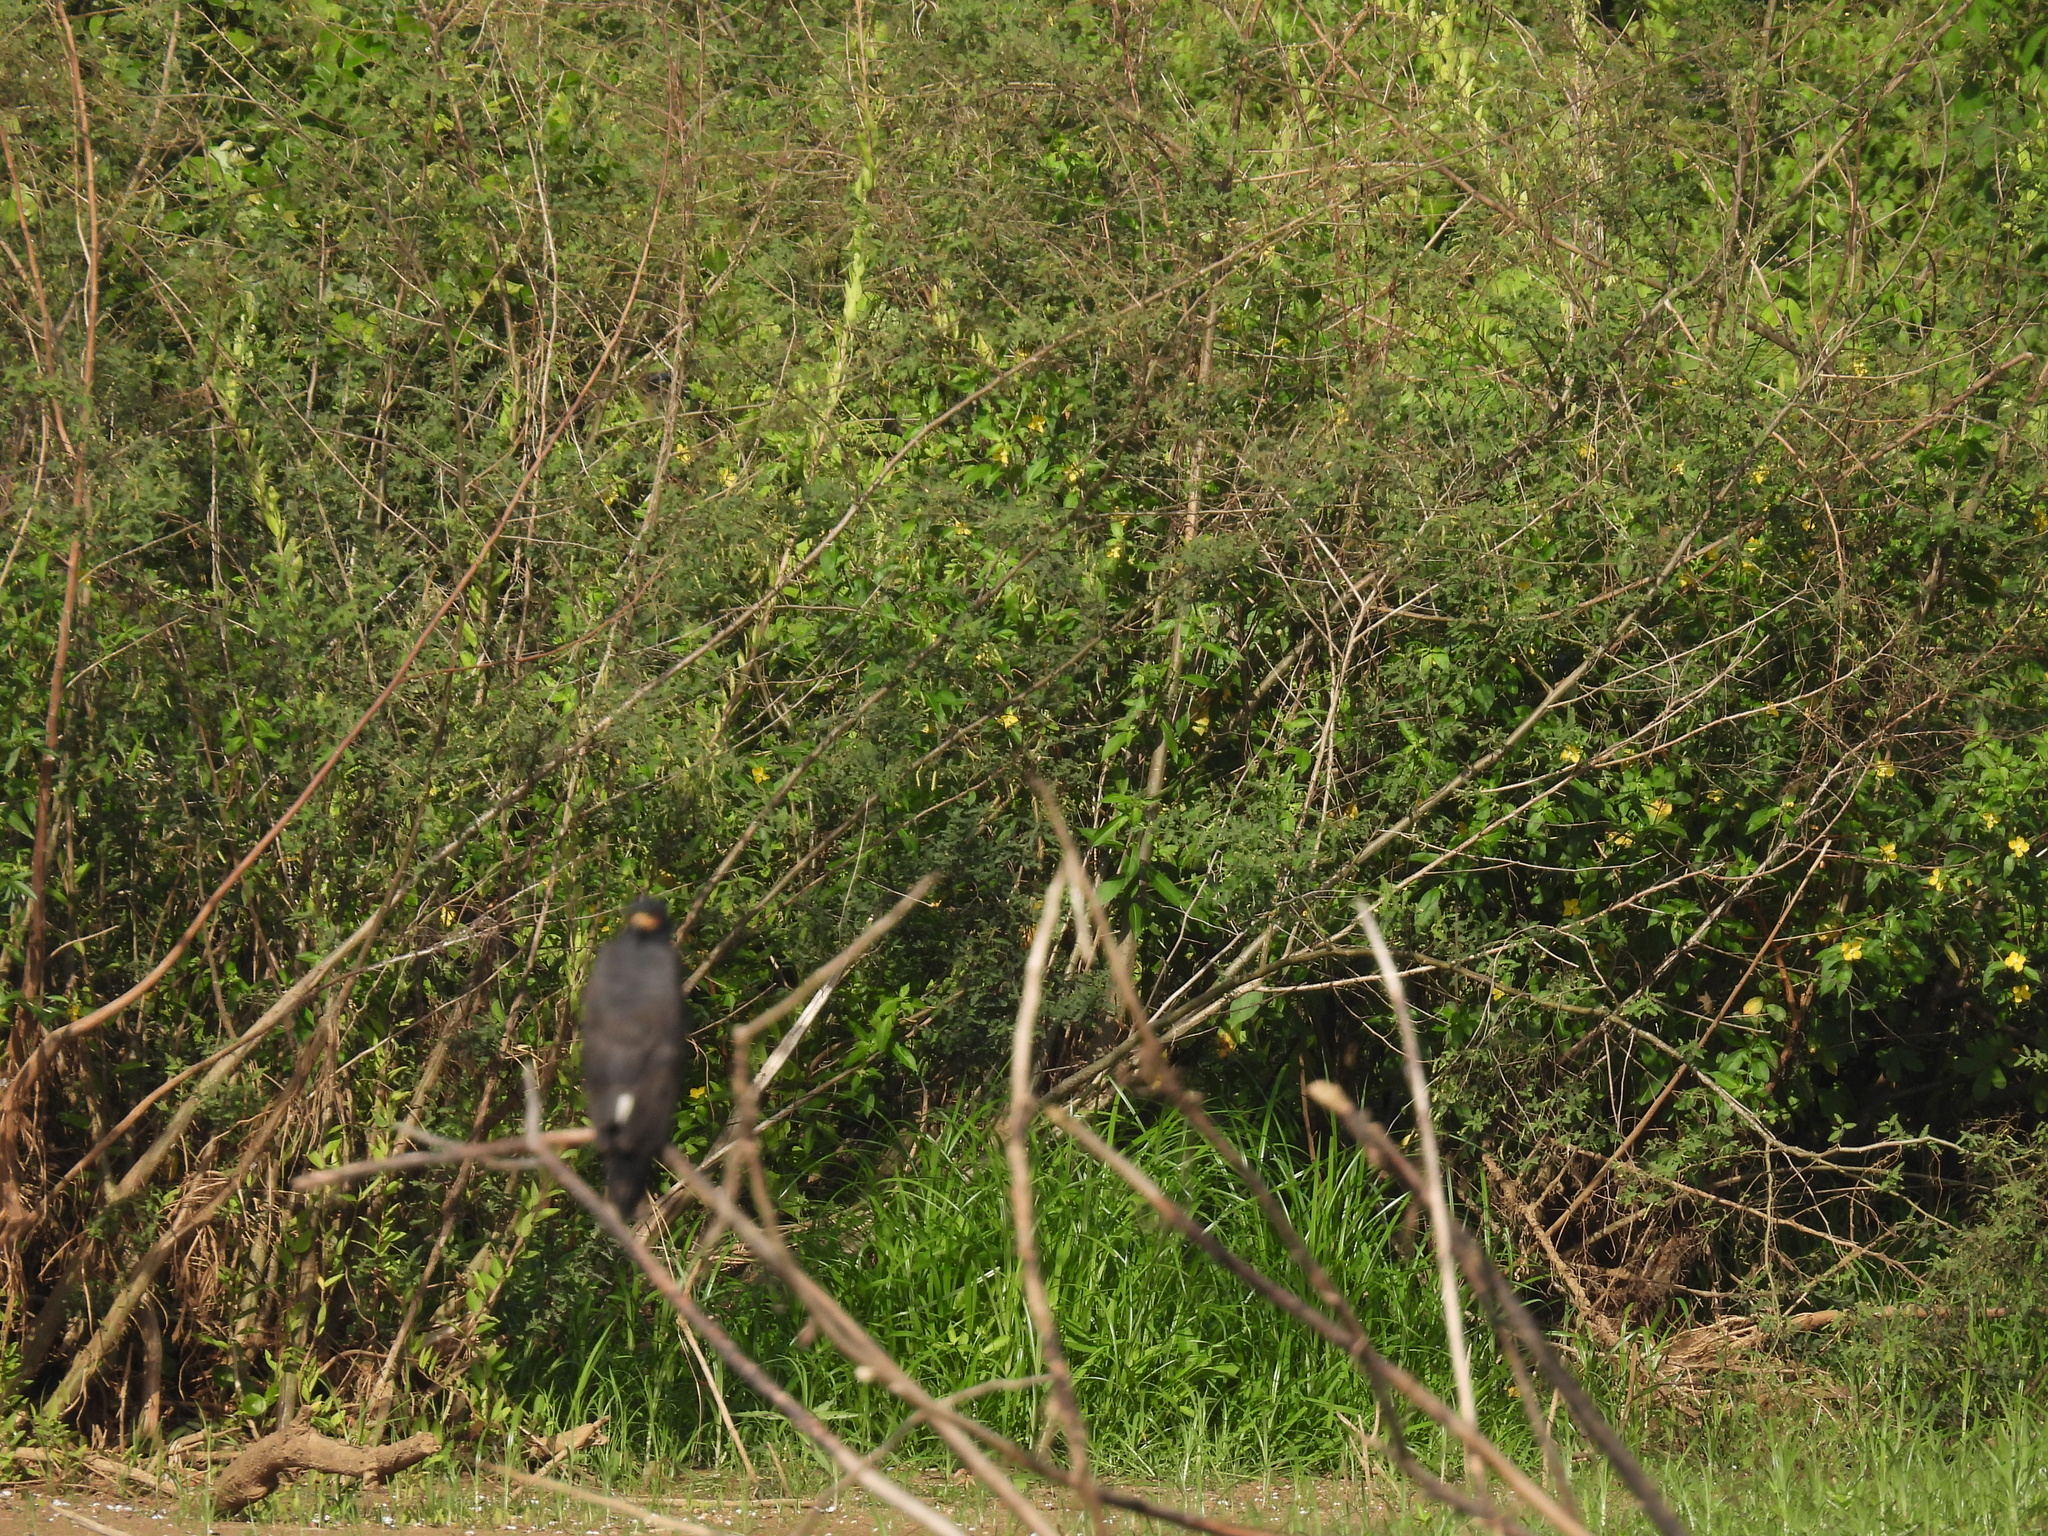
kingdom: Animalia
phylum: Chordata
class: Aves
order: Accipitriformes
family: Accipitridae
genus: Rostrhamus
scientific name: Rostrhamus sociabilis
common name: Snail kite
